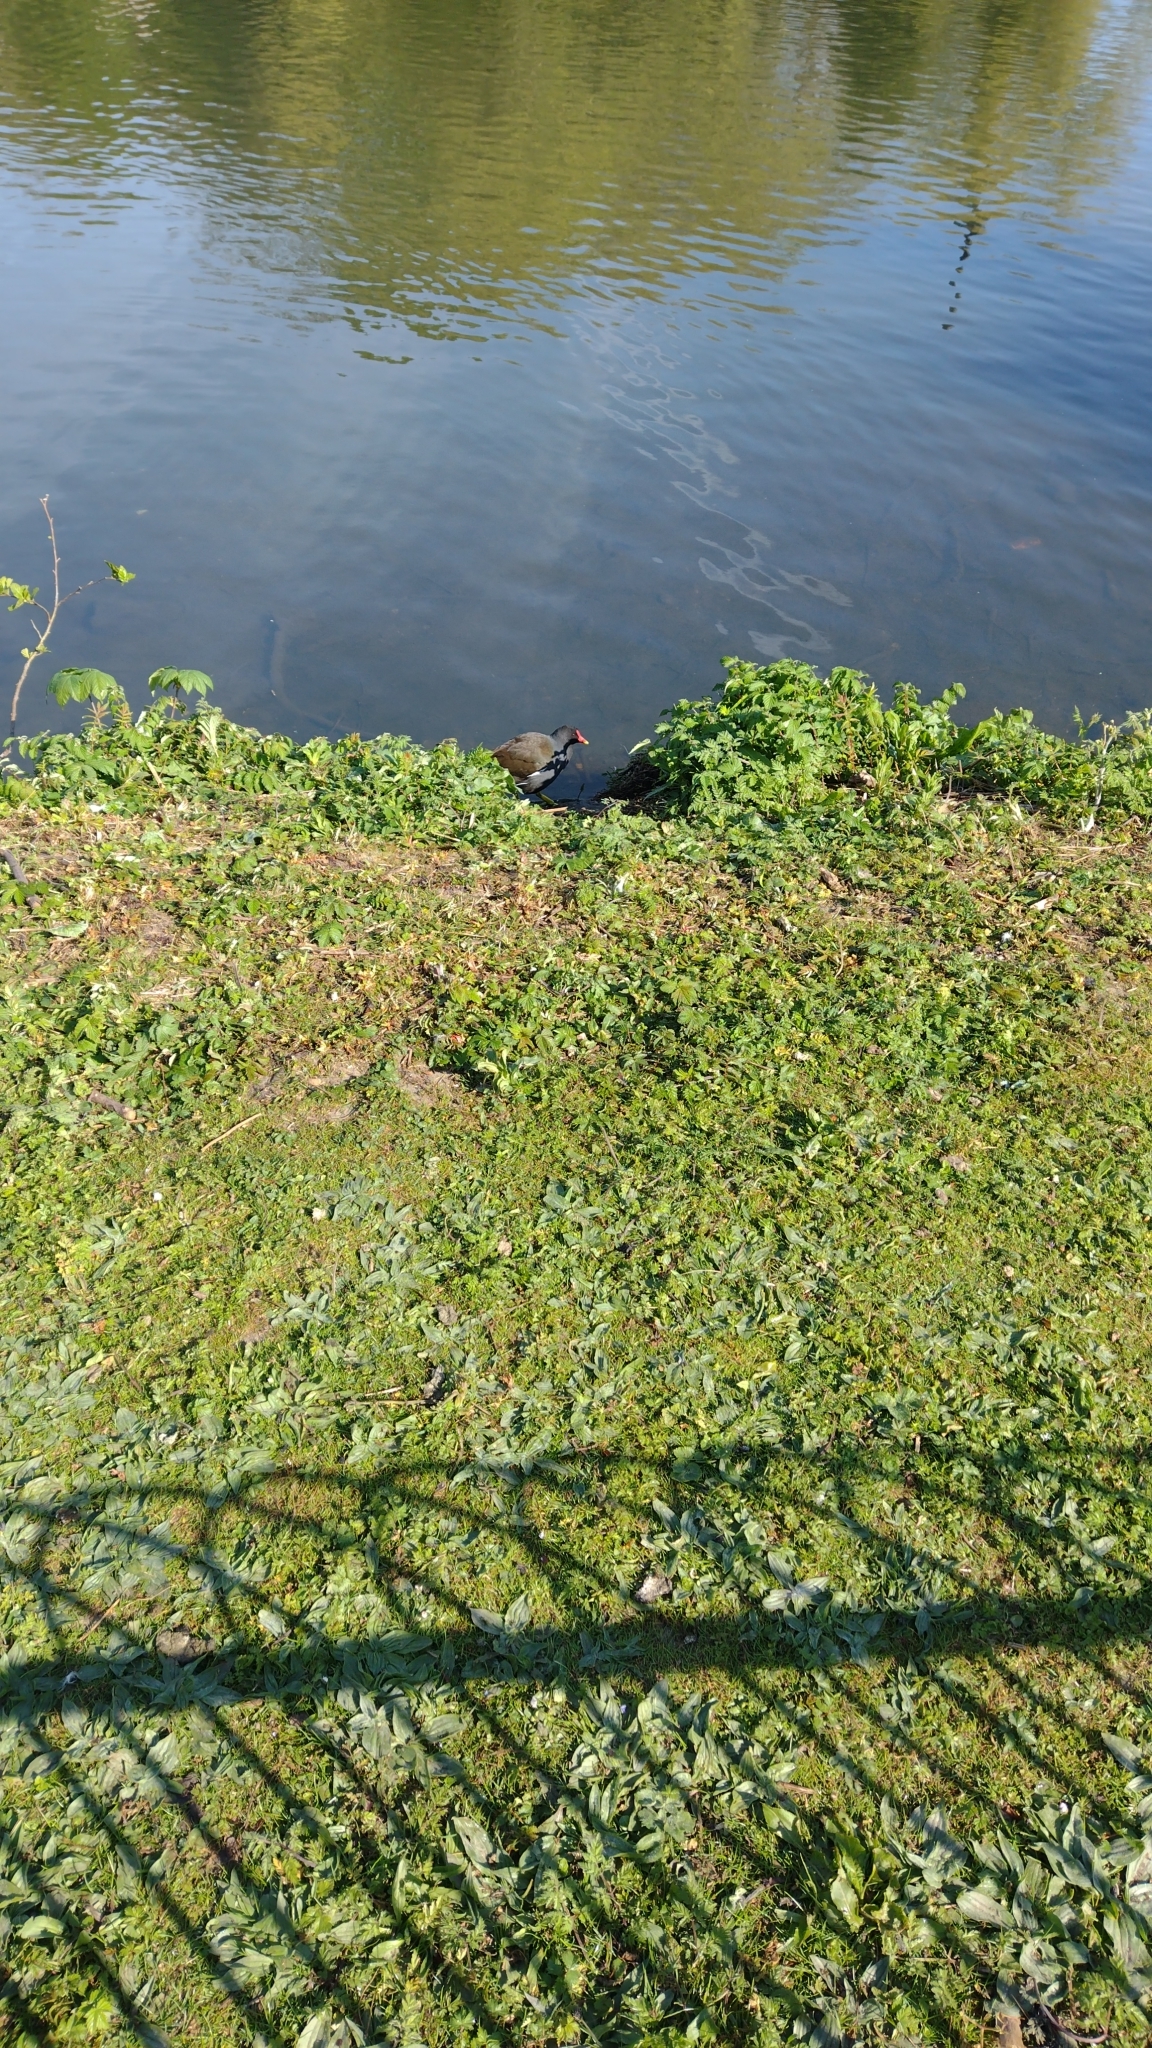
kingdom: Animalia
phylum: Chordata
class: Aves
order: Gruiformes
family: Rallidae
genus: Gallinula
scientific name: Gallinula chloropus
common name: Common moorhen
